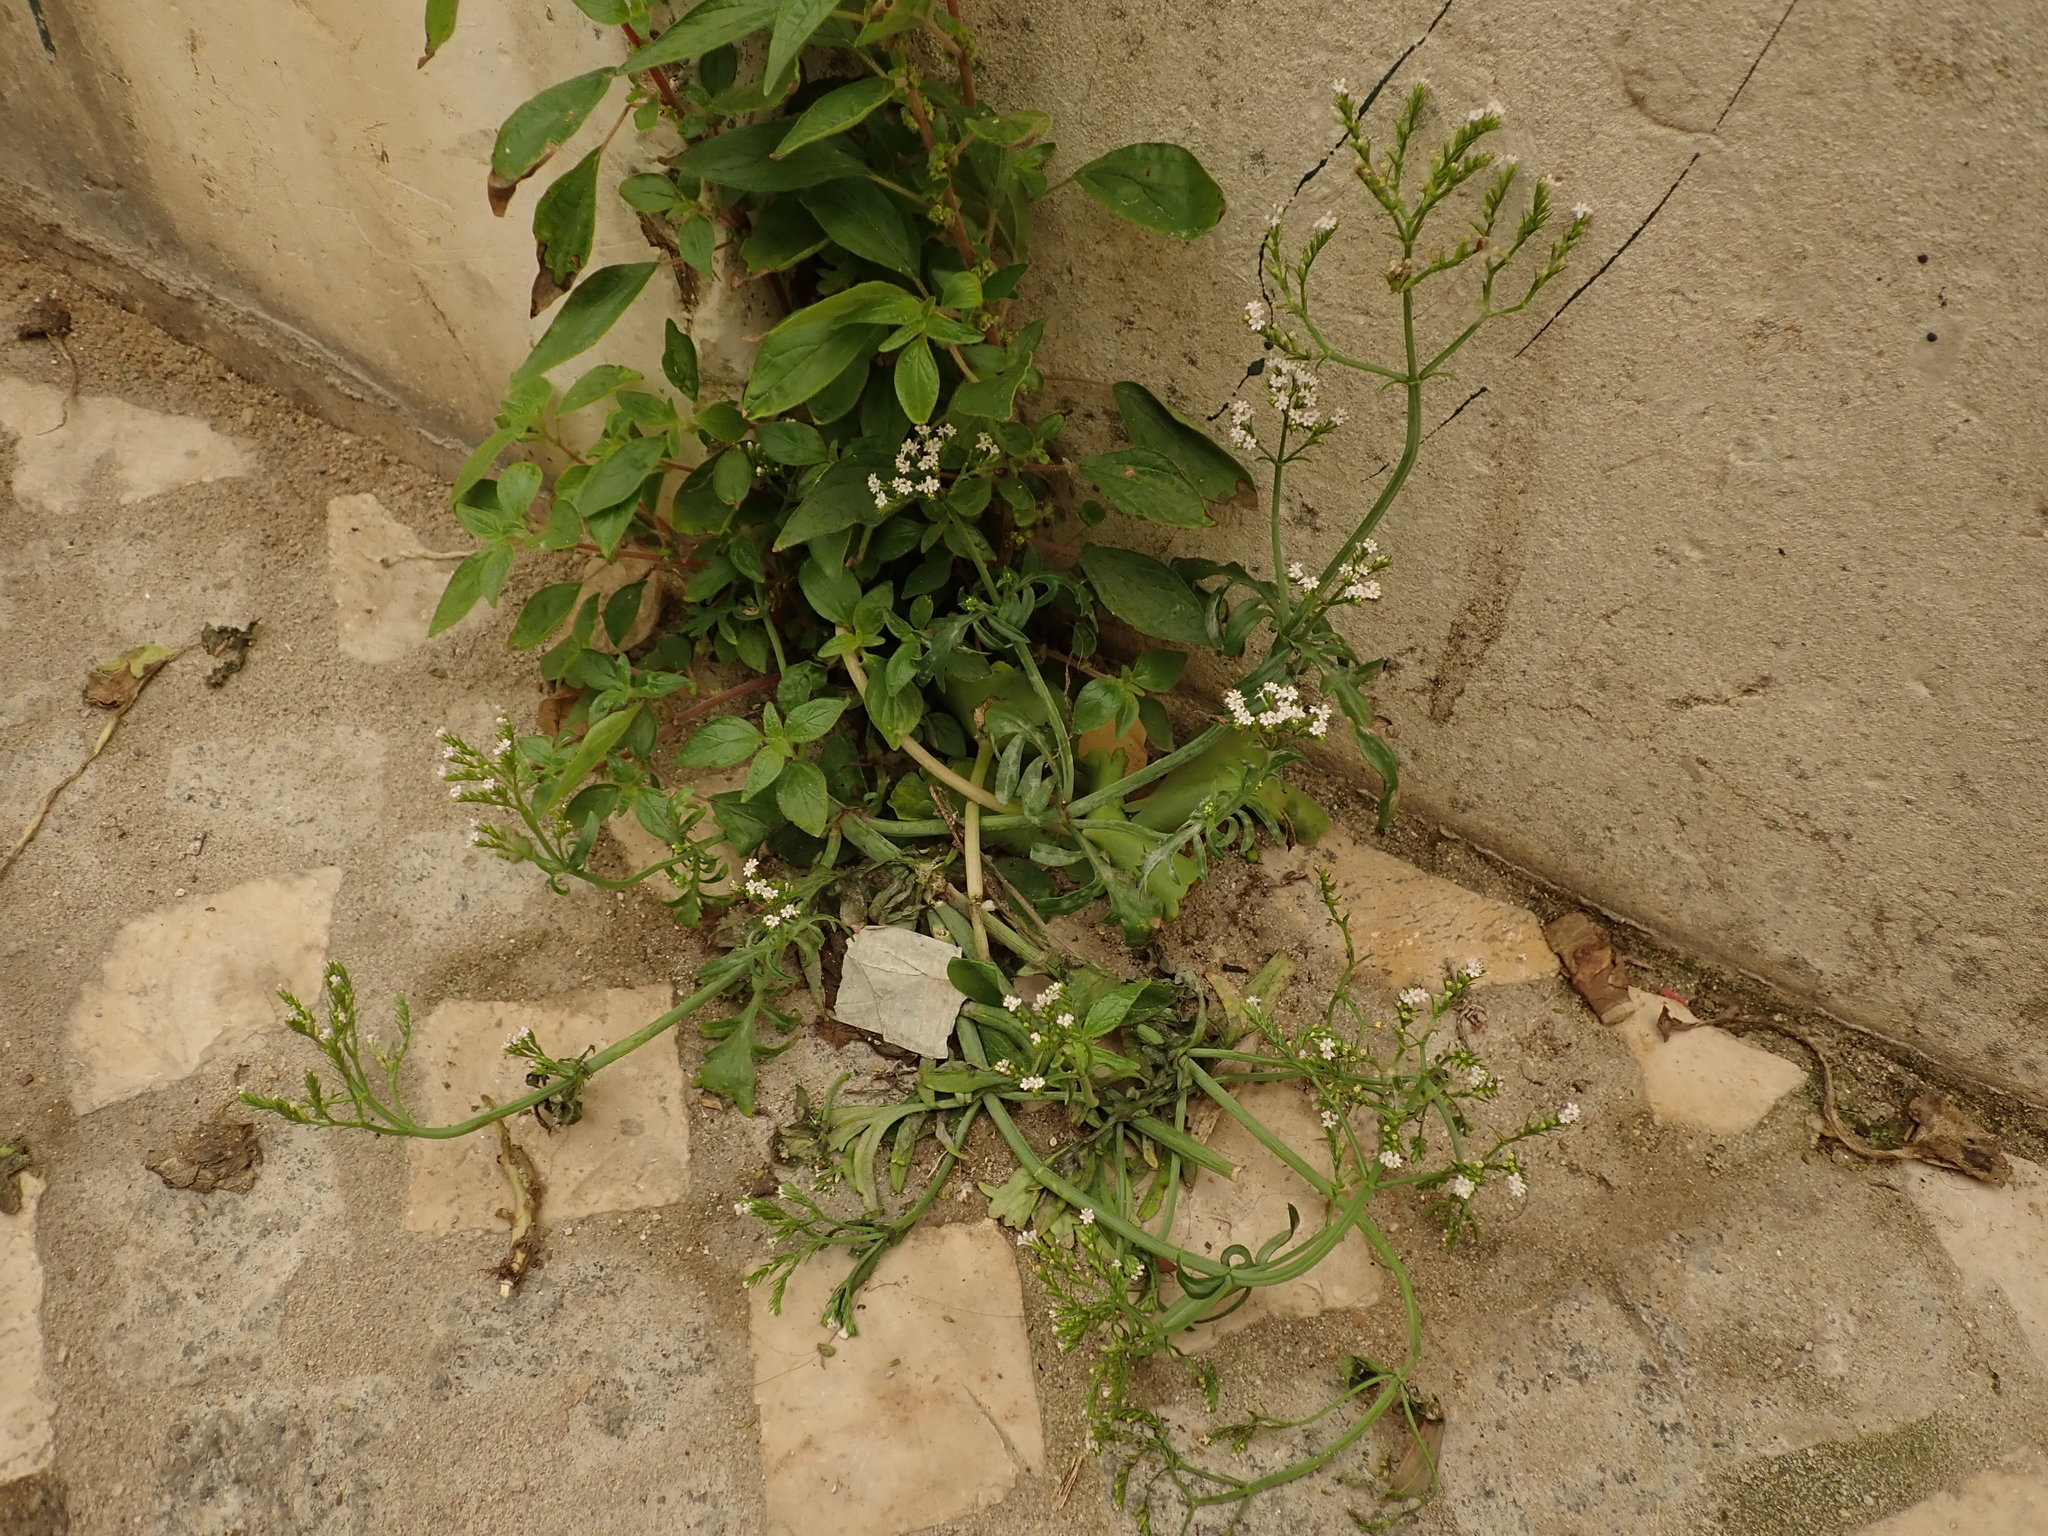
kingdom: Plantae
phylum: Tracheophyta
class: Magnoliopsida
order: Dipsacales
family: Caprifoliaceae
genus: Centranthus
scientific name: Centranthus calcitrapae
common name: Annual valerian
